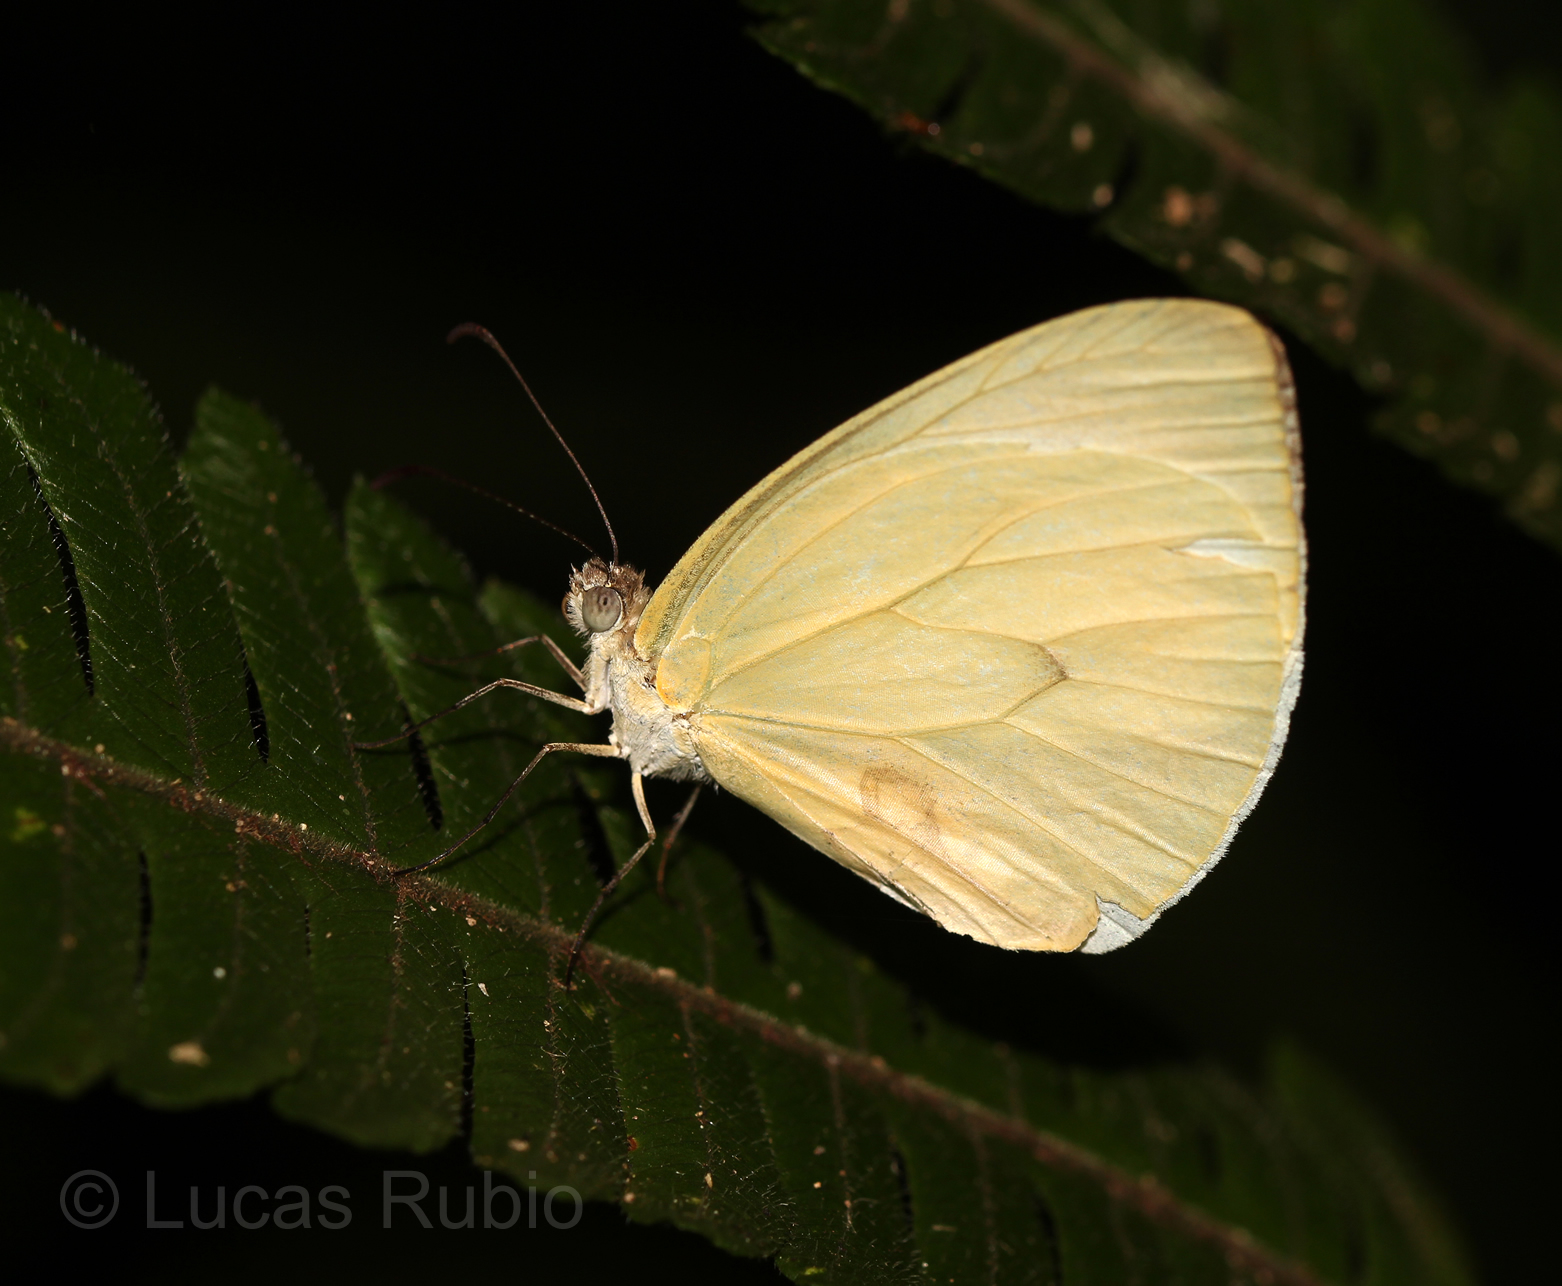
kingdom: Animalia
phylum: Arthropoda
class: Insecta
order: Lepidoptera
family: Pieridae
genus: Pseudopieris
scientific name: Pseudopieris nehemia
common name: Clean mimic-white
